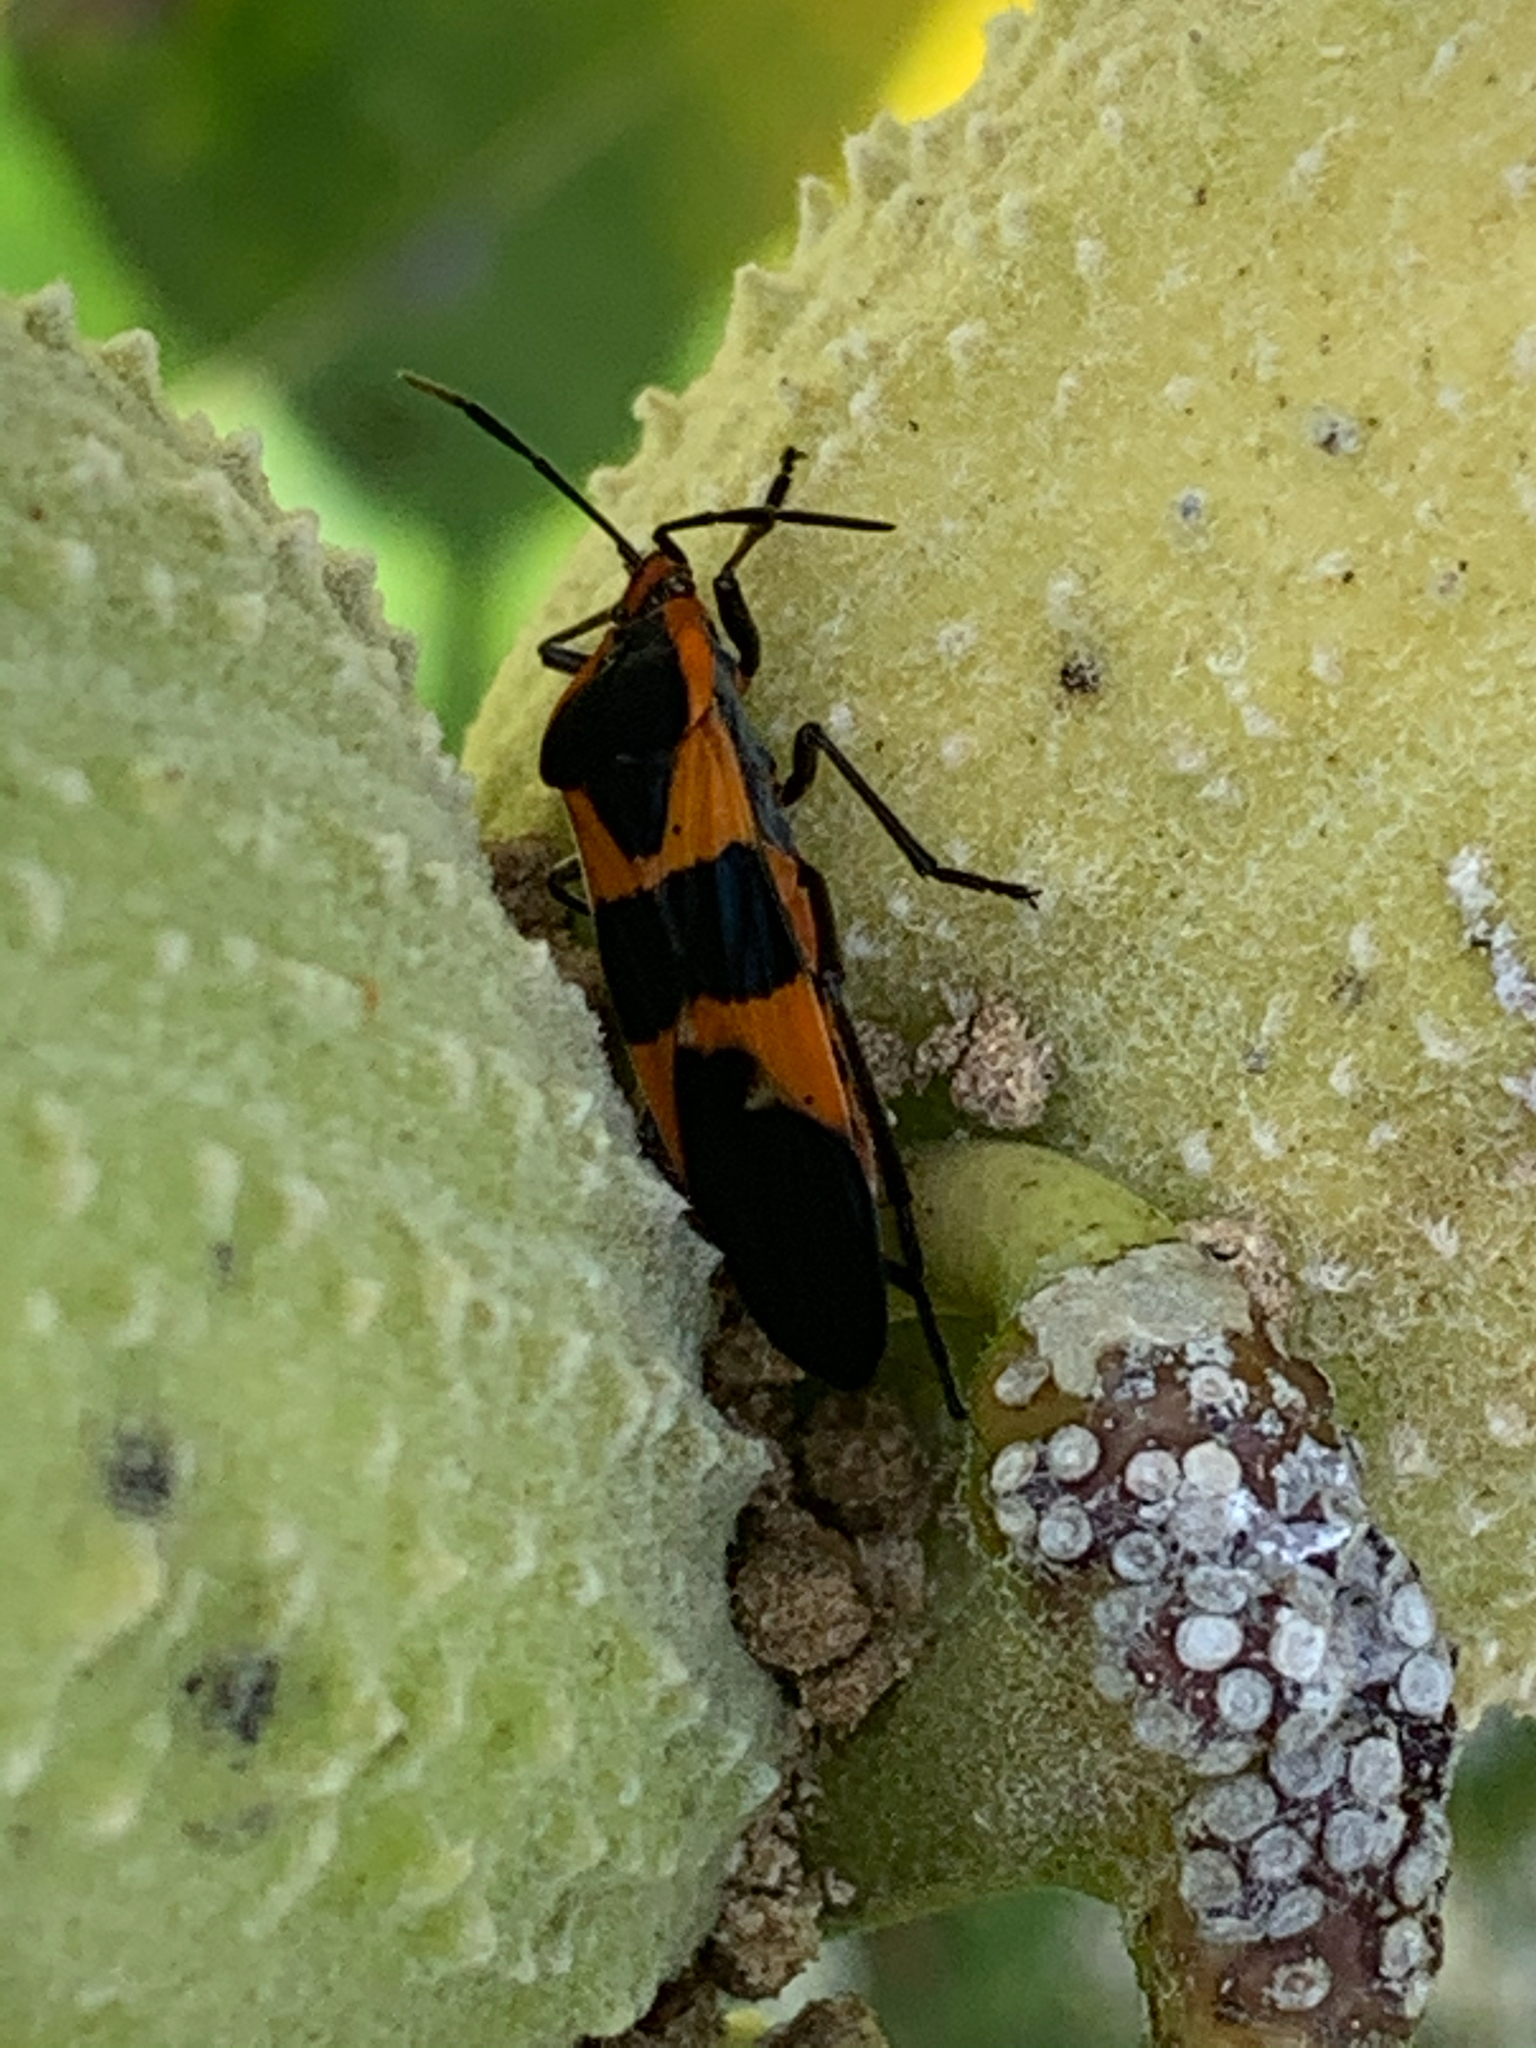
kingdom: Animalia
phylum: Arthropoda
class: Insecta
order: Hemiptera
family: Lygaeidae
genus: Oncopeltus
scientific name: Oncopeltus fasciatus
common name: Large milkweed bug
